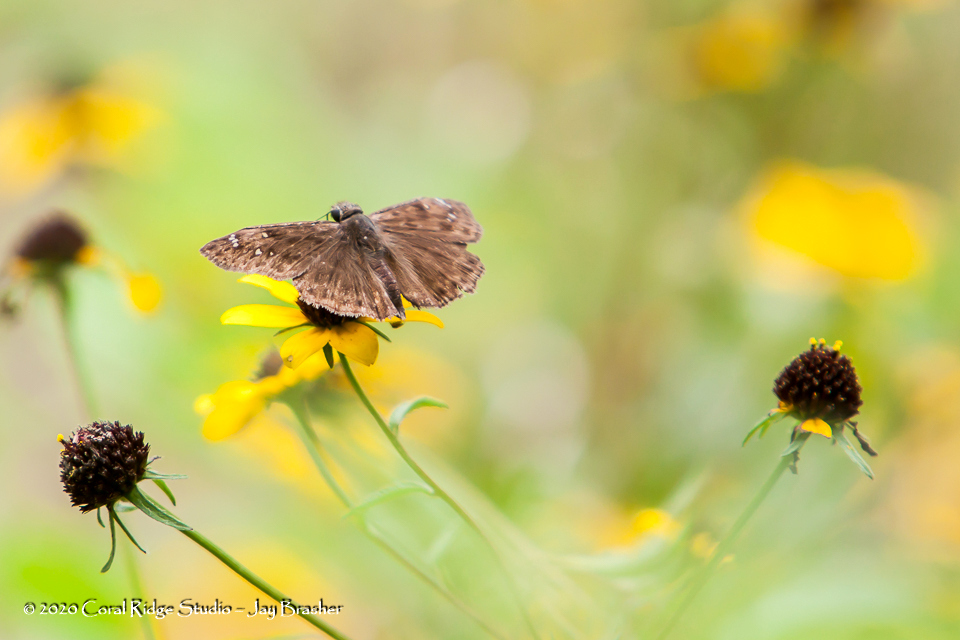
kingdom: Animalia
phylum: Arthropoda
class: Insecta
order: Lepidoptera
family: Hesperiidae
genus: Erynnis
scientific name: Erynnis horatius
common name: Horace's duskywing
